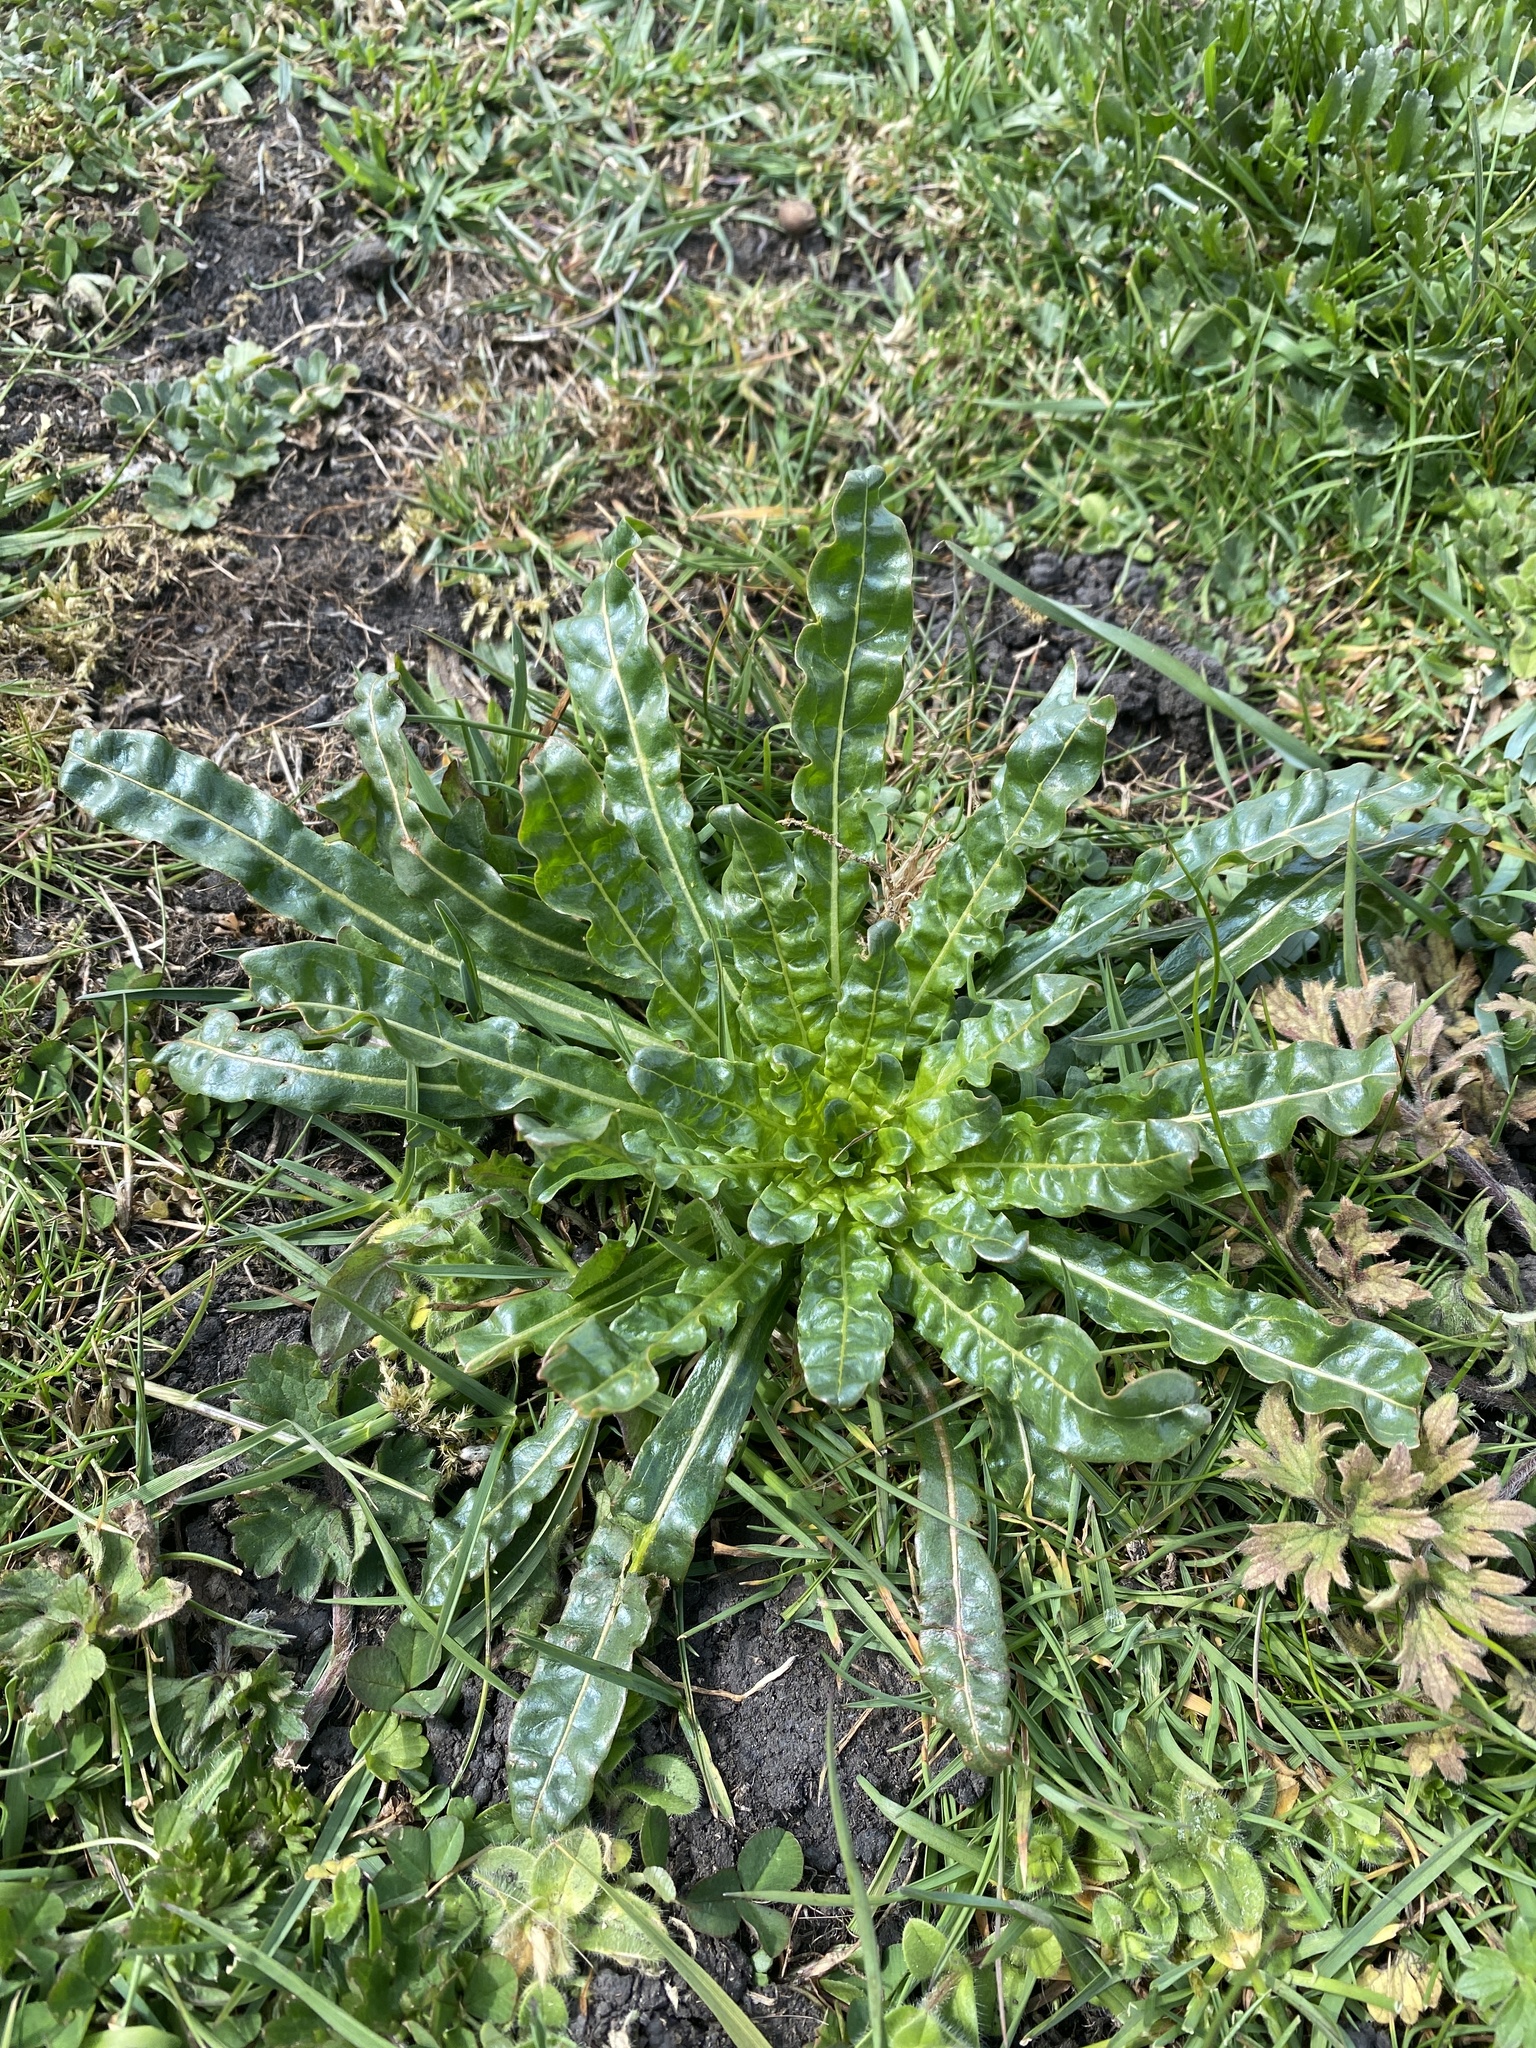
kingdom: Plantae
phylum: Tracheophyta
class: Magnoliopsida
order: Brassicales
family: Resedaceae
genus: Reseda
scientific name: Reseda luteola
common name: Weld
